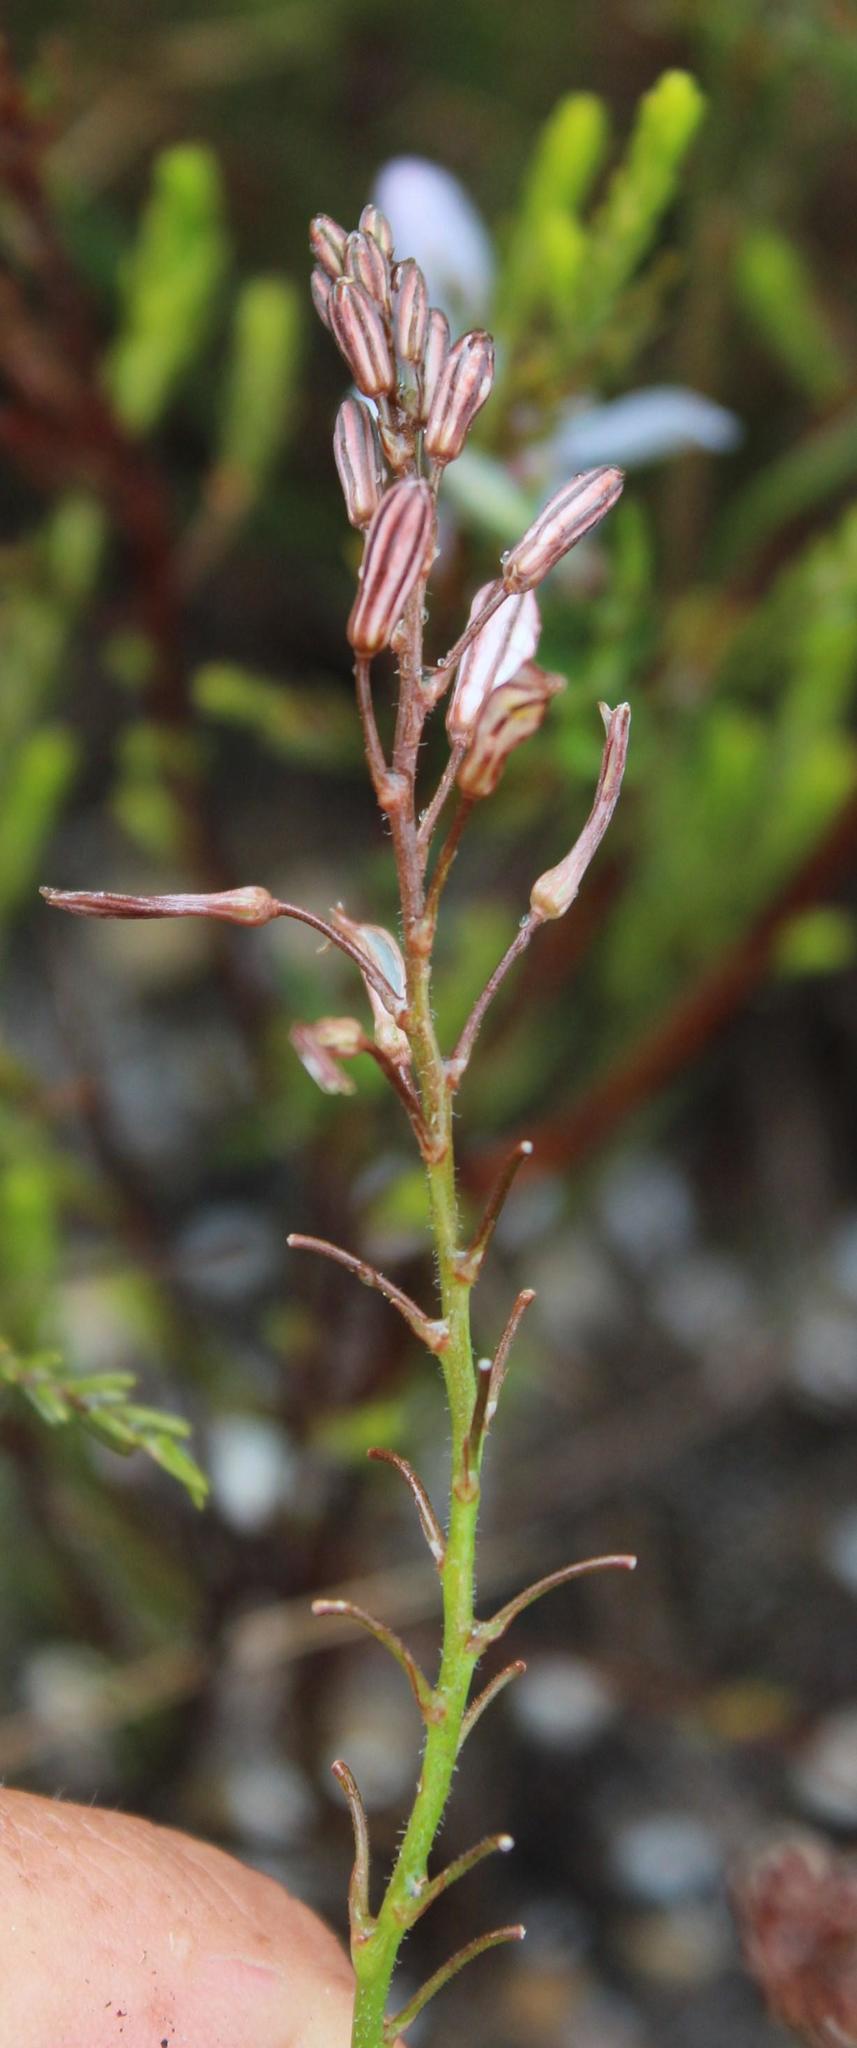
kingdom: Plantae
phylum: Tracheophyta
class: Liliopsida
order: Asparagales
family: Asphodelaceae
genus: Trachyandra
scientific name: Trachyandra hirsuta
